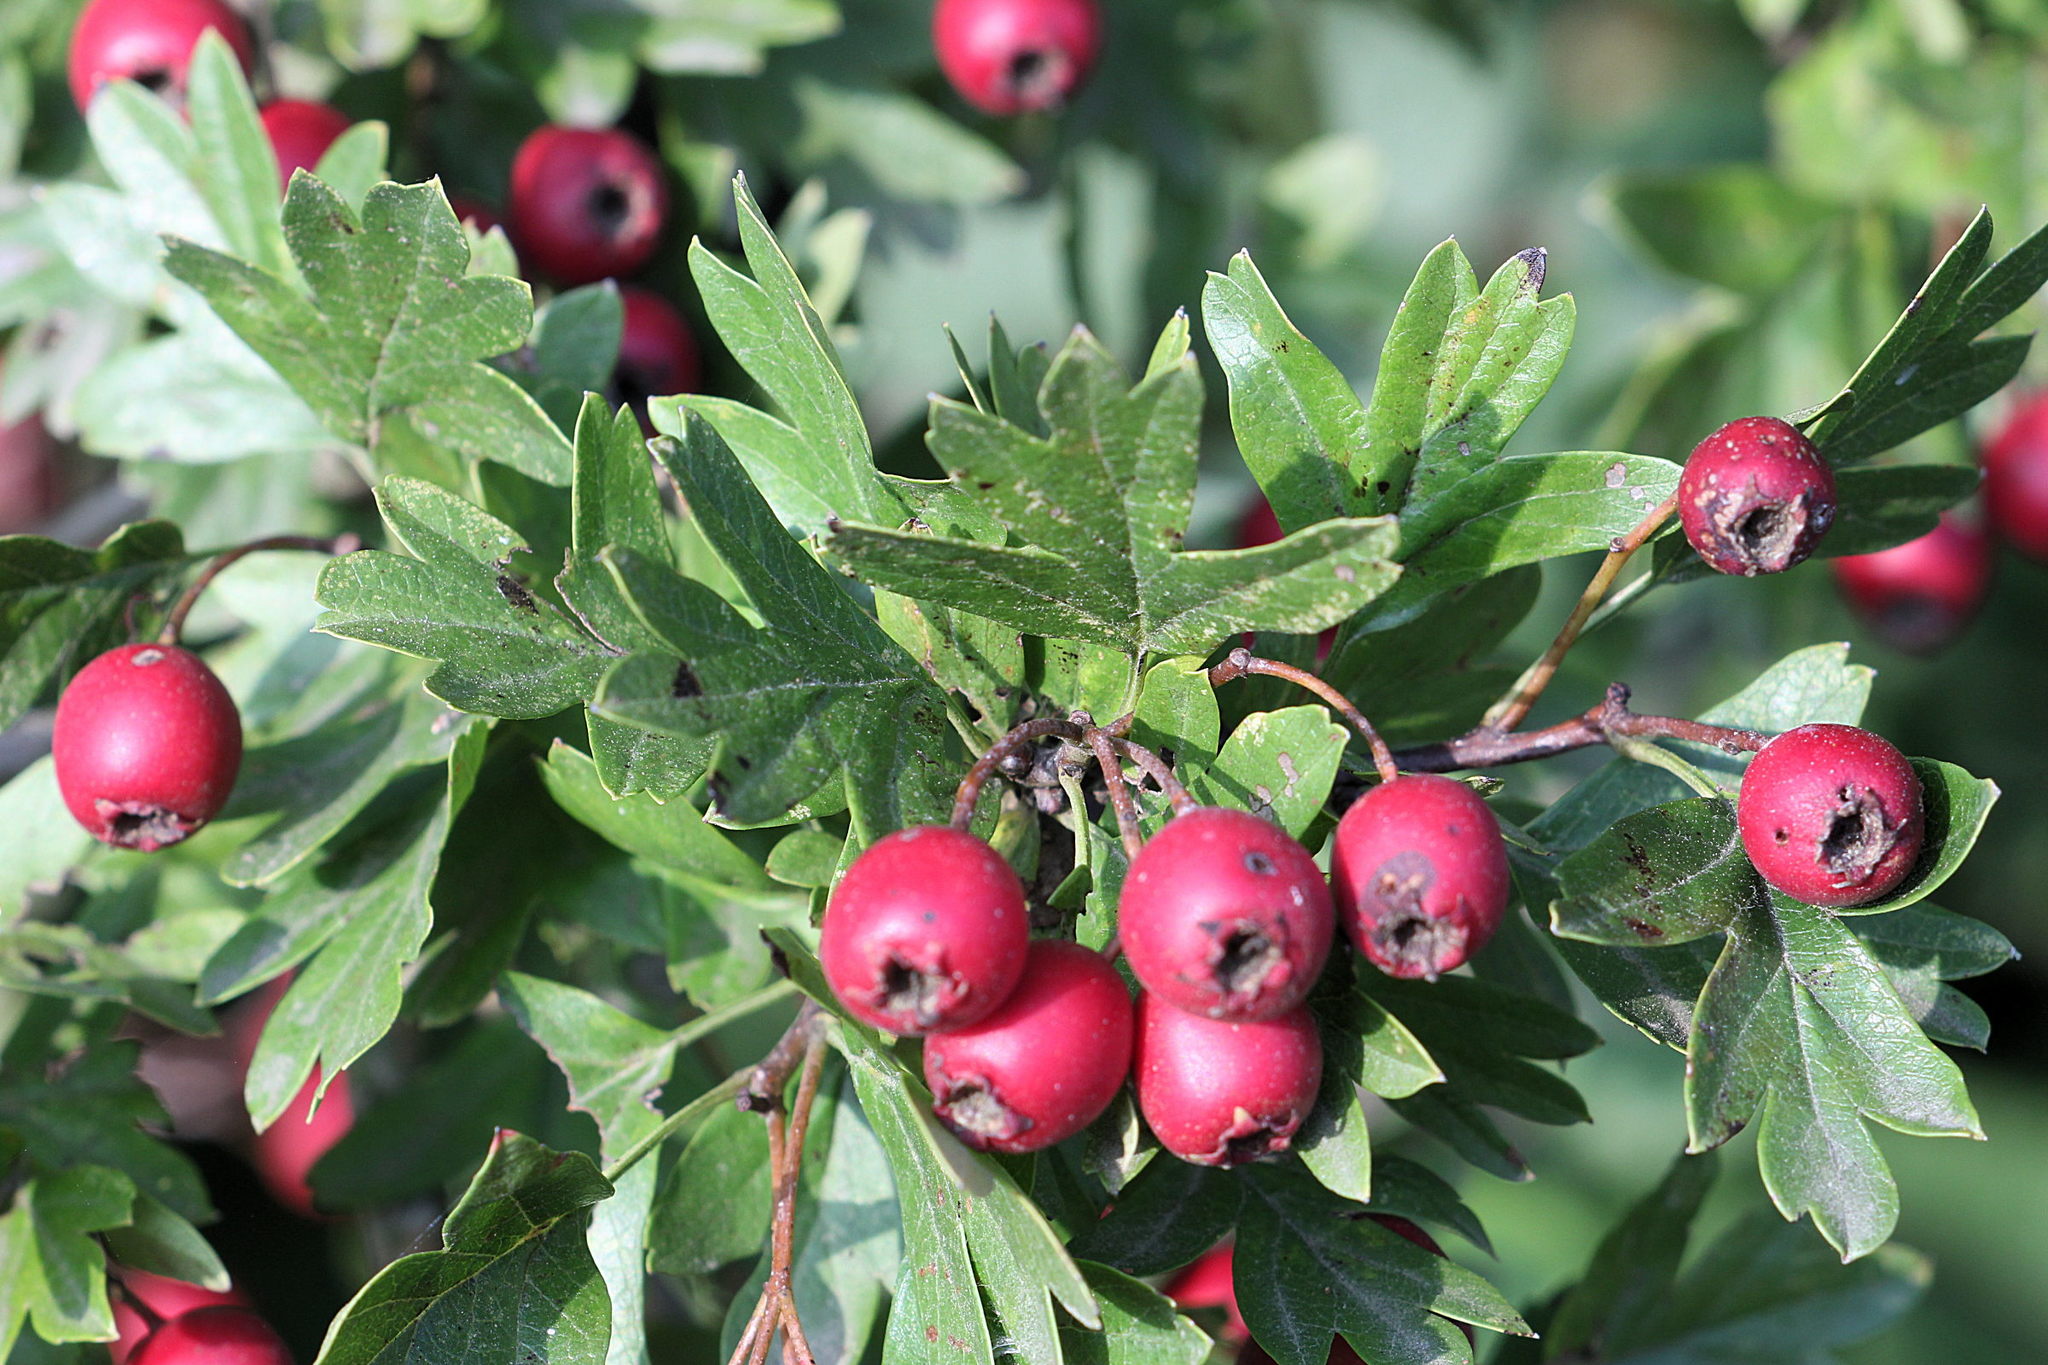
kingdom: Plantae
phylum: Tracheophyta
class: Magnoliopsida
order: Rosales
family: Rosaceae
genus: Crataegus
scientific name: Crataegus monogyna
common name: Hawthorn
